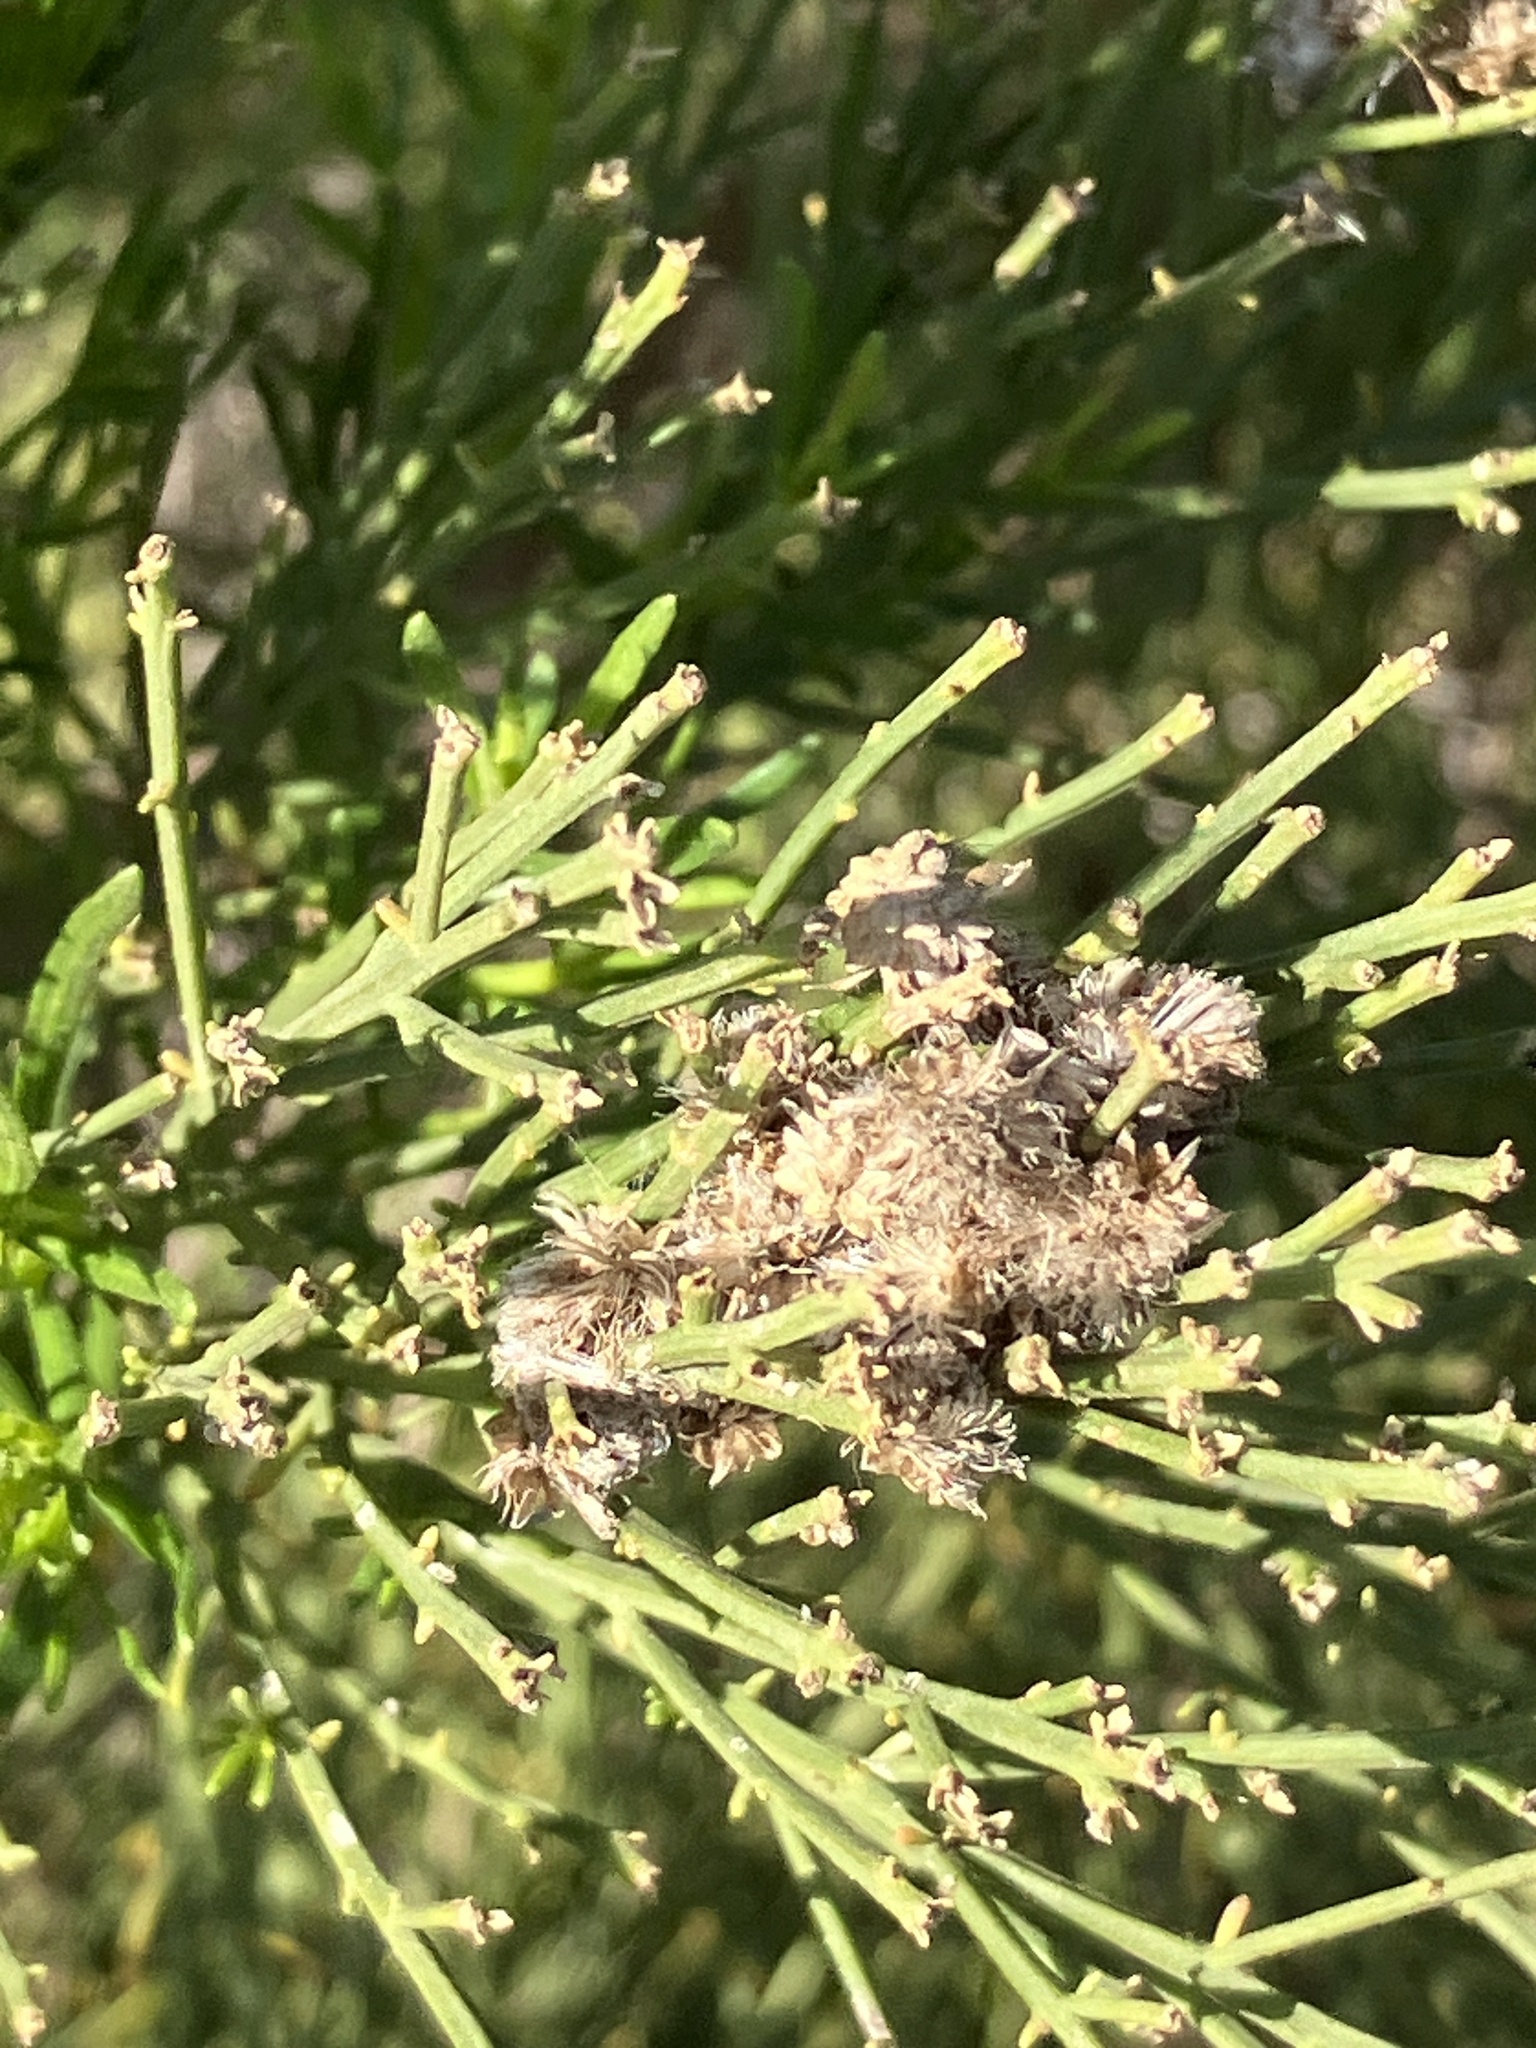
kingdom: Plantae
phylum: Tracheophyta
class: Magnoliopsida
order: Asterales
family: Asteraceae
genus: Baccharis
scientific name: Baccharis sarothroides
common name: Desert-broom
